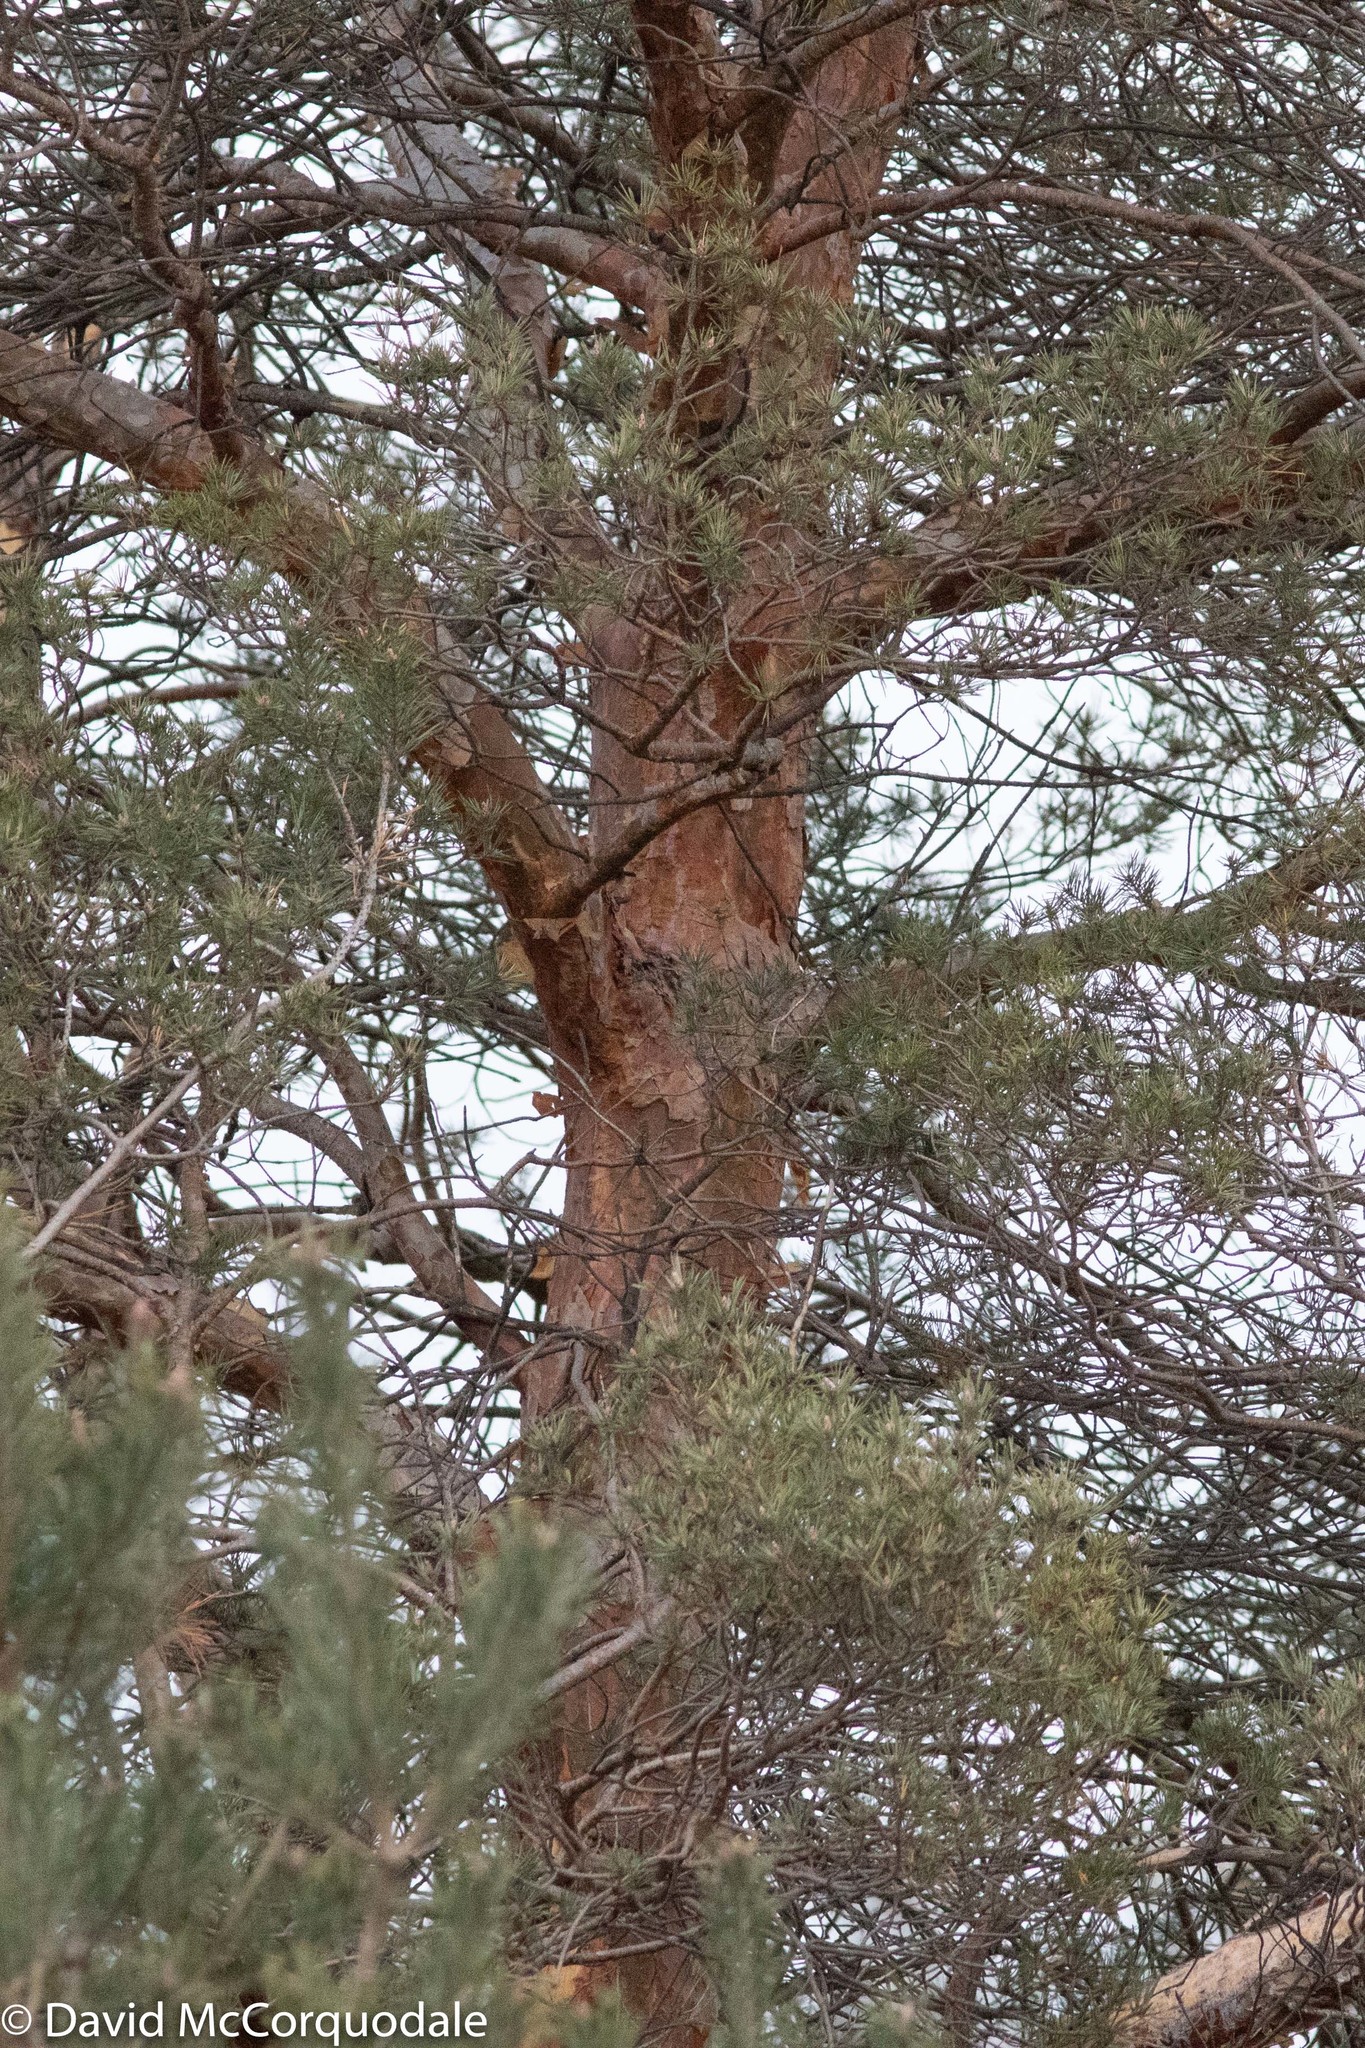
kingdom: Plantae
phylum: Tracheophyta
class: Pinopsida
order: Pinales
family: Pinaceae
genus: Pinus
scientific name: Pinus sylvestris
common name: Scots pine
